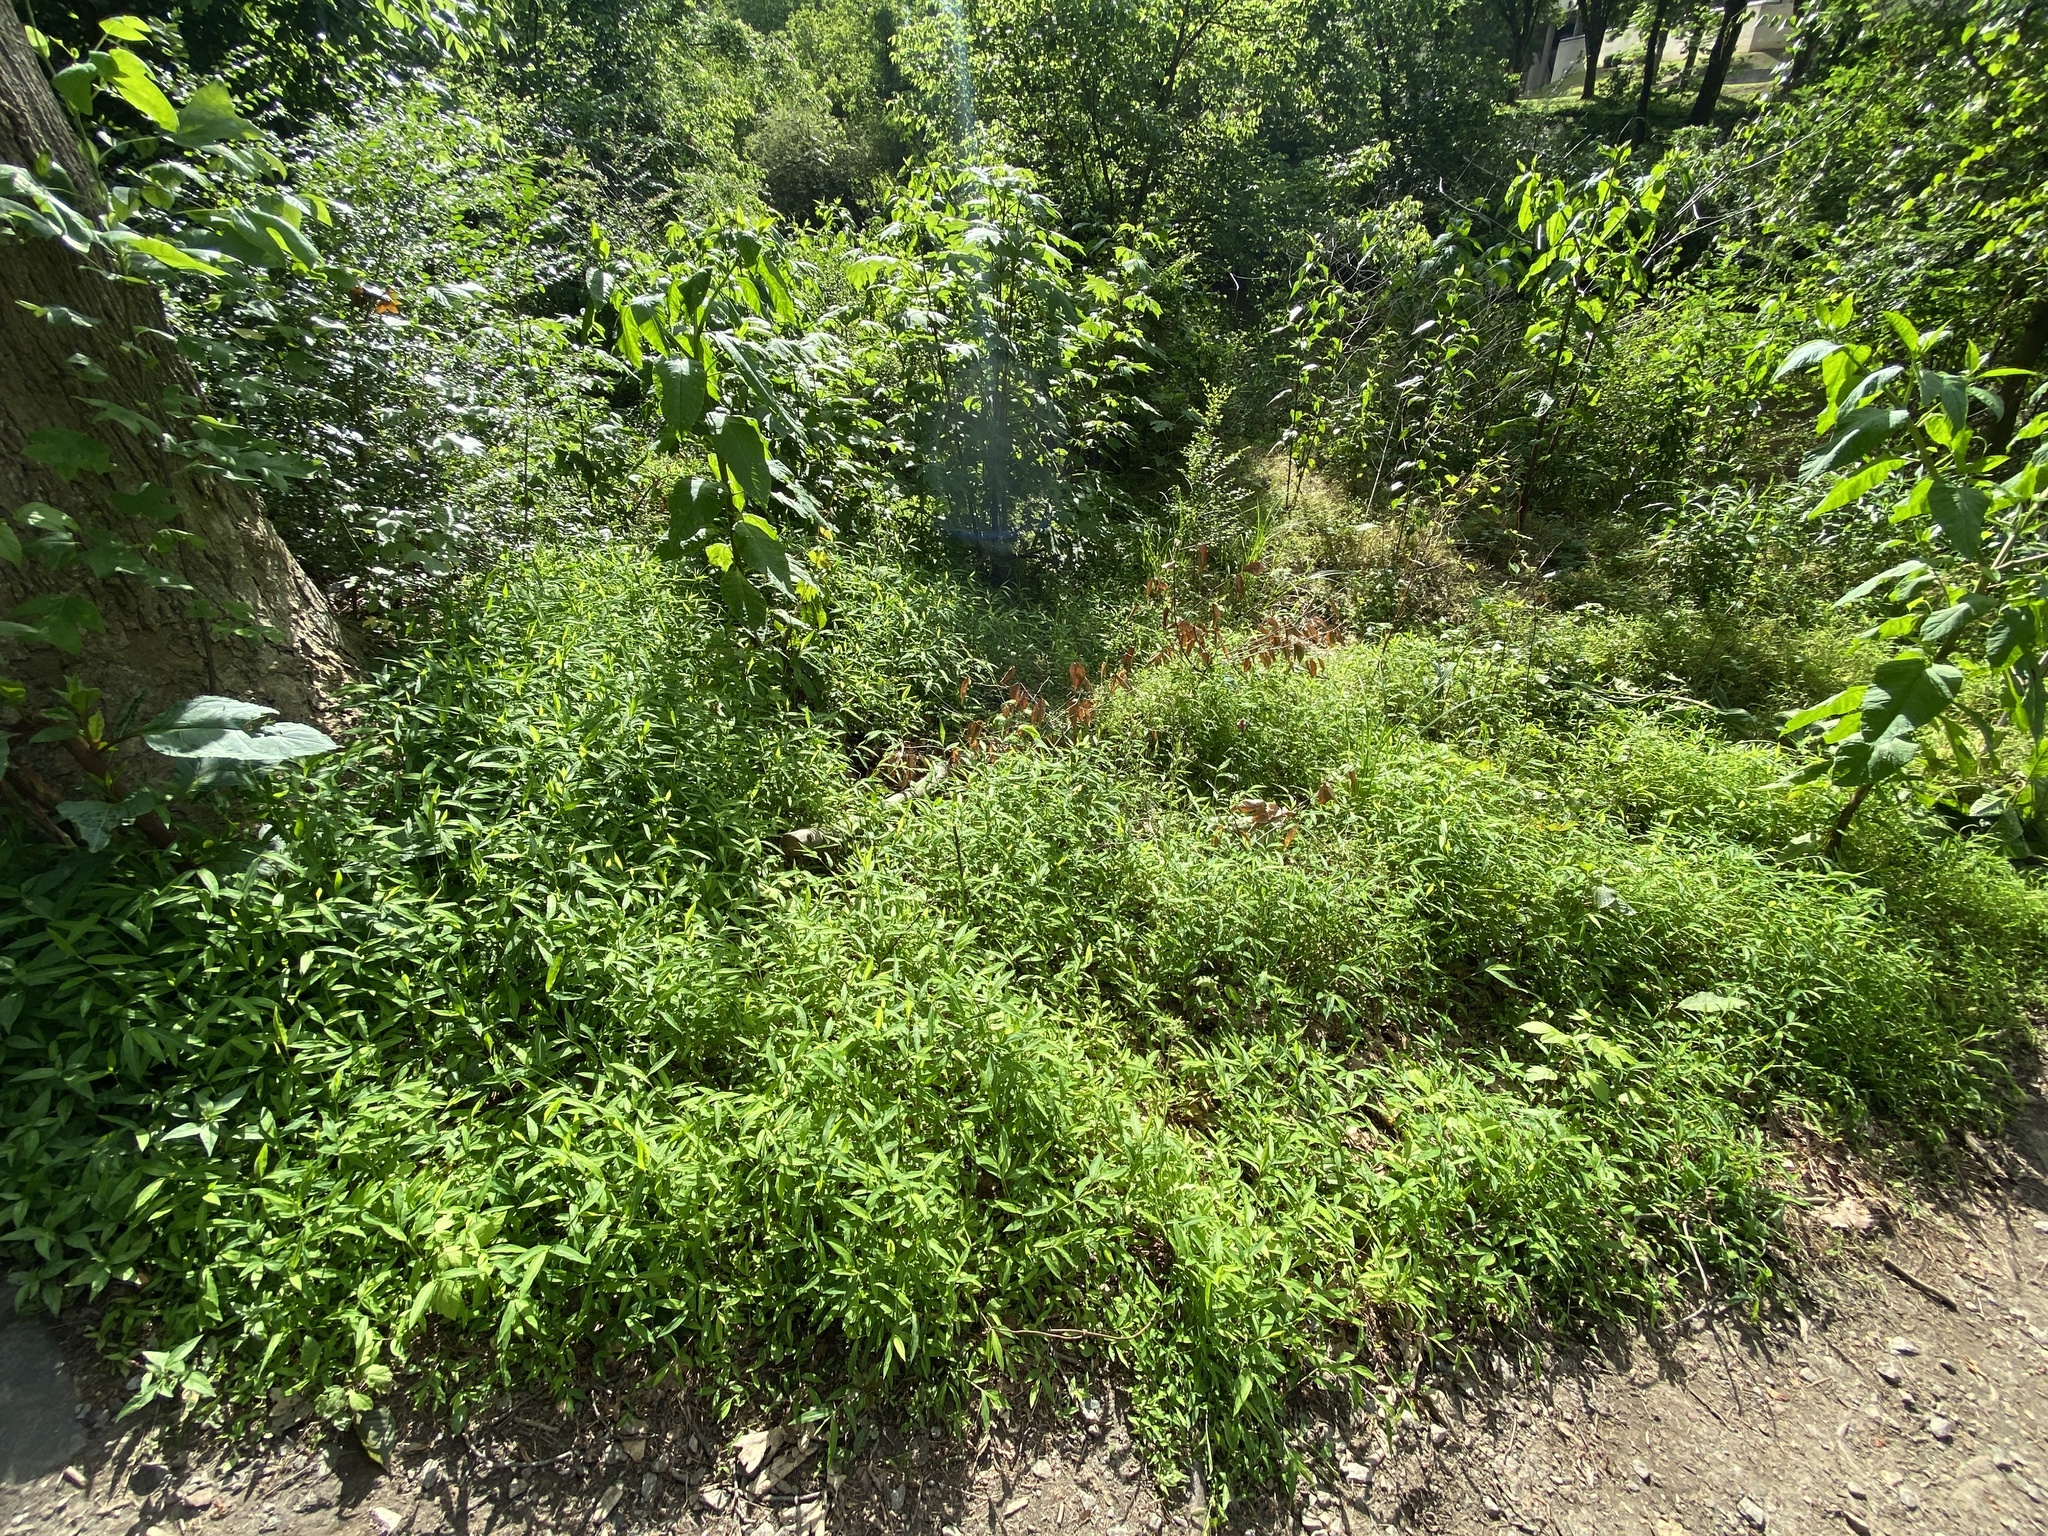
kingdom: Plantae
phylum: Tracheophyta
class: Liliopsida
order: Poales
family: Poaceae
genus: Microstegium
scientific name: Microstegium vimineum
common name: Japanese stiltgrass
